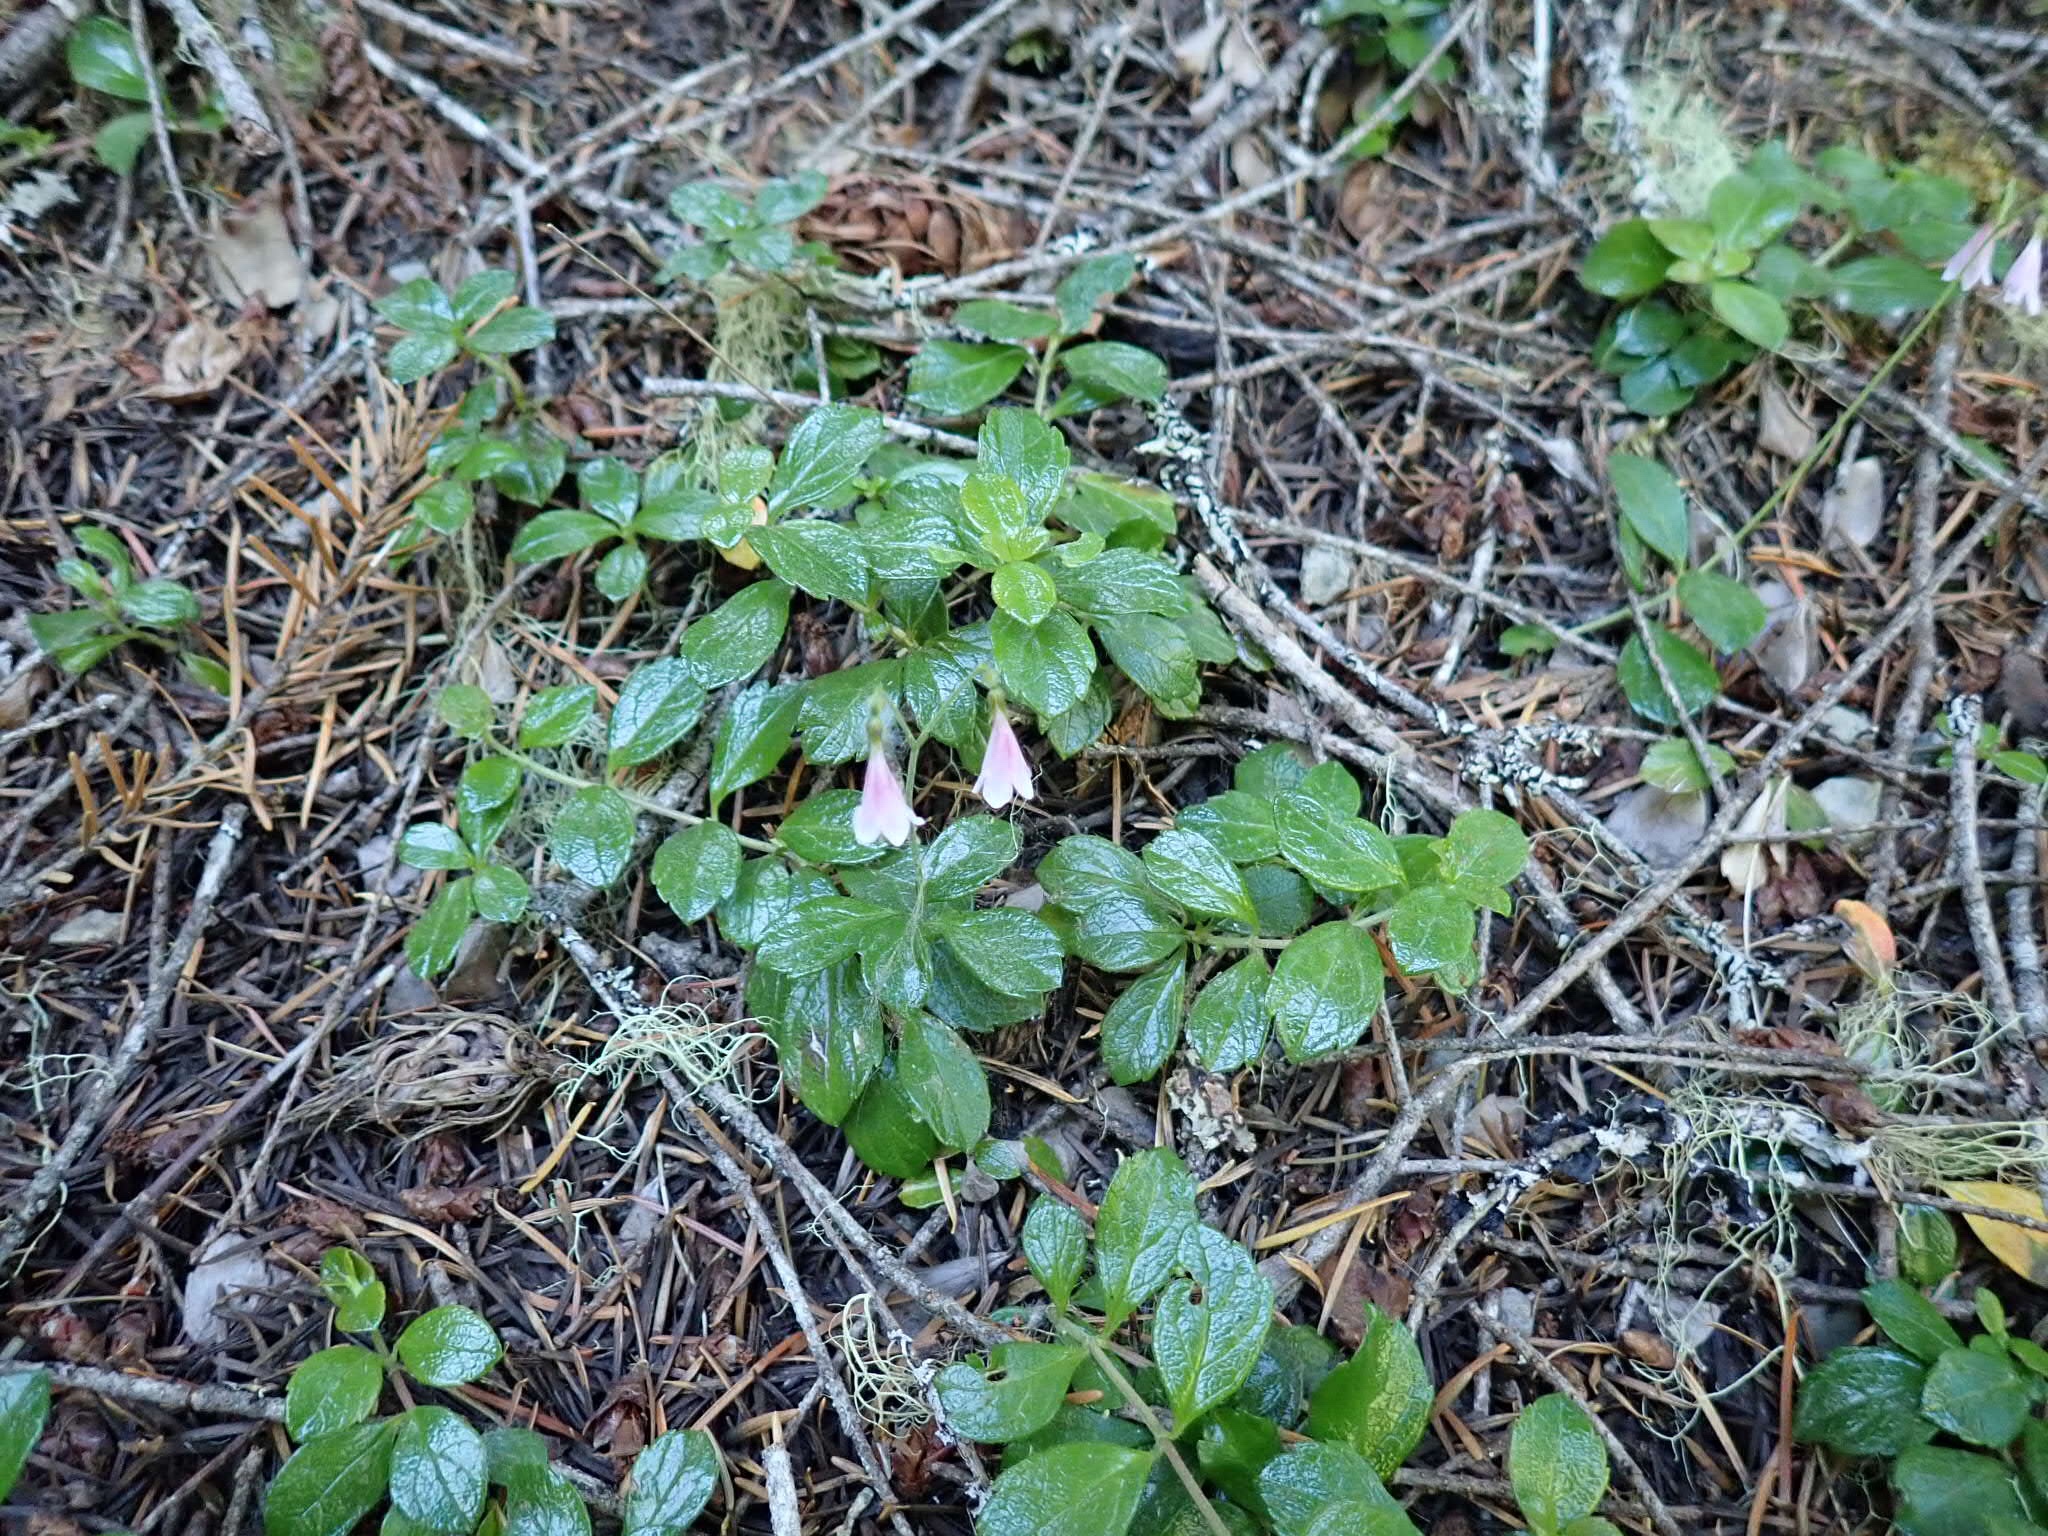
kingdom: Plantae
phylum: Tracheophyta
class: Magnoliopsida
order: Dipsacales
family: Caprifoliaceae
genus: Linnaea
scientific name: Linnaea borealis
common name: Twinflower
